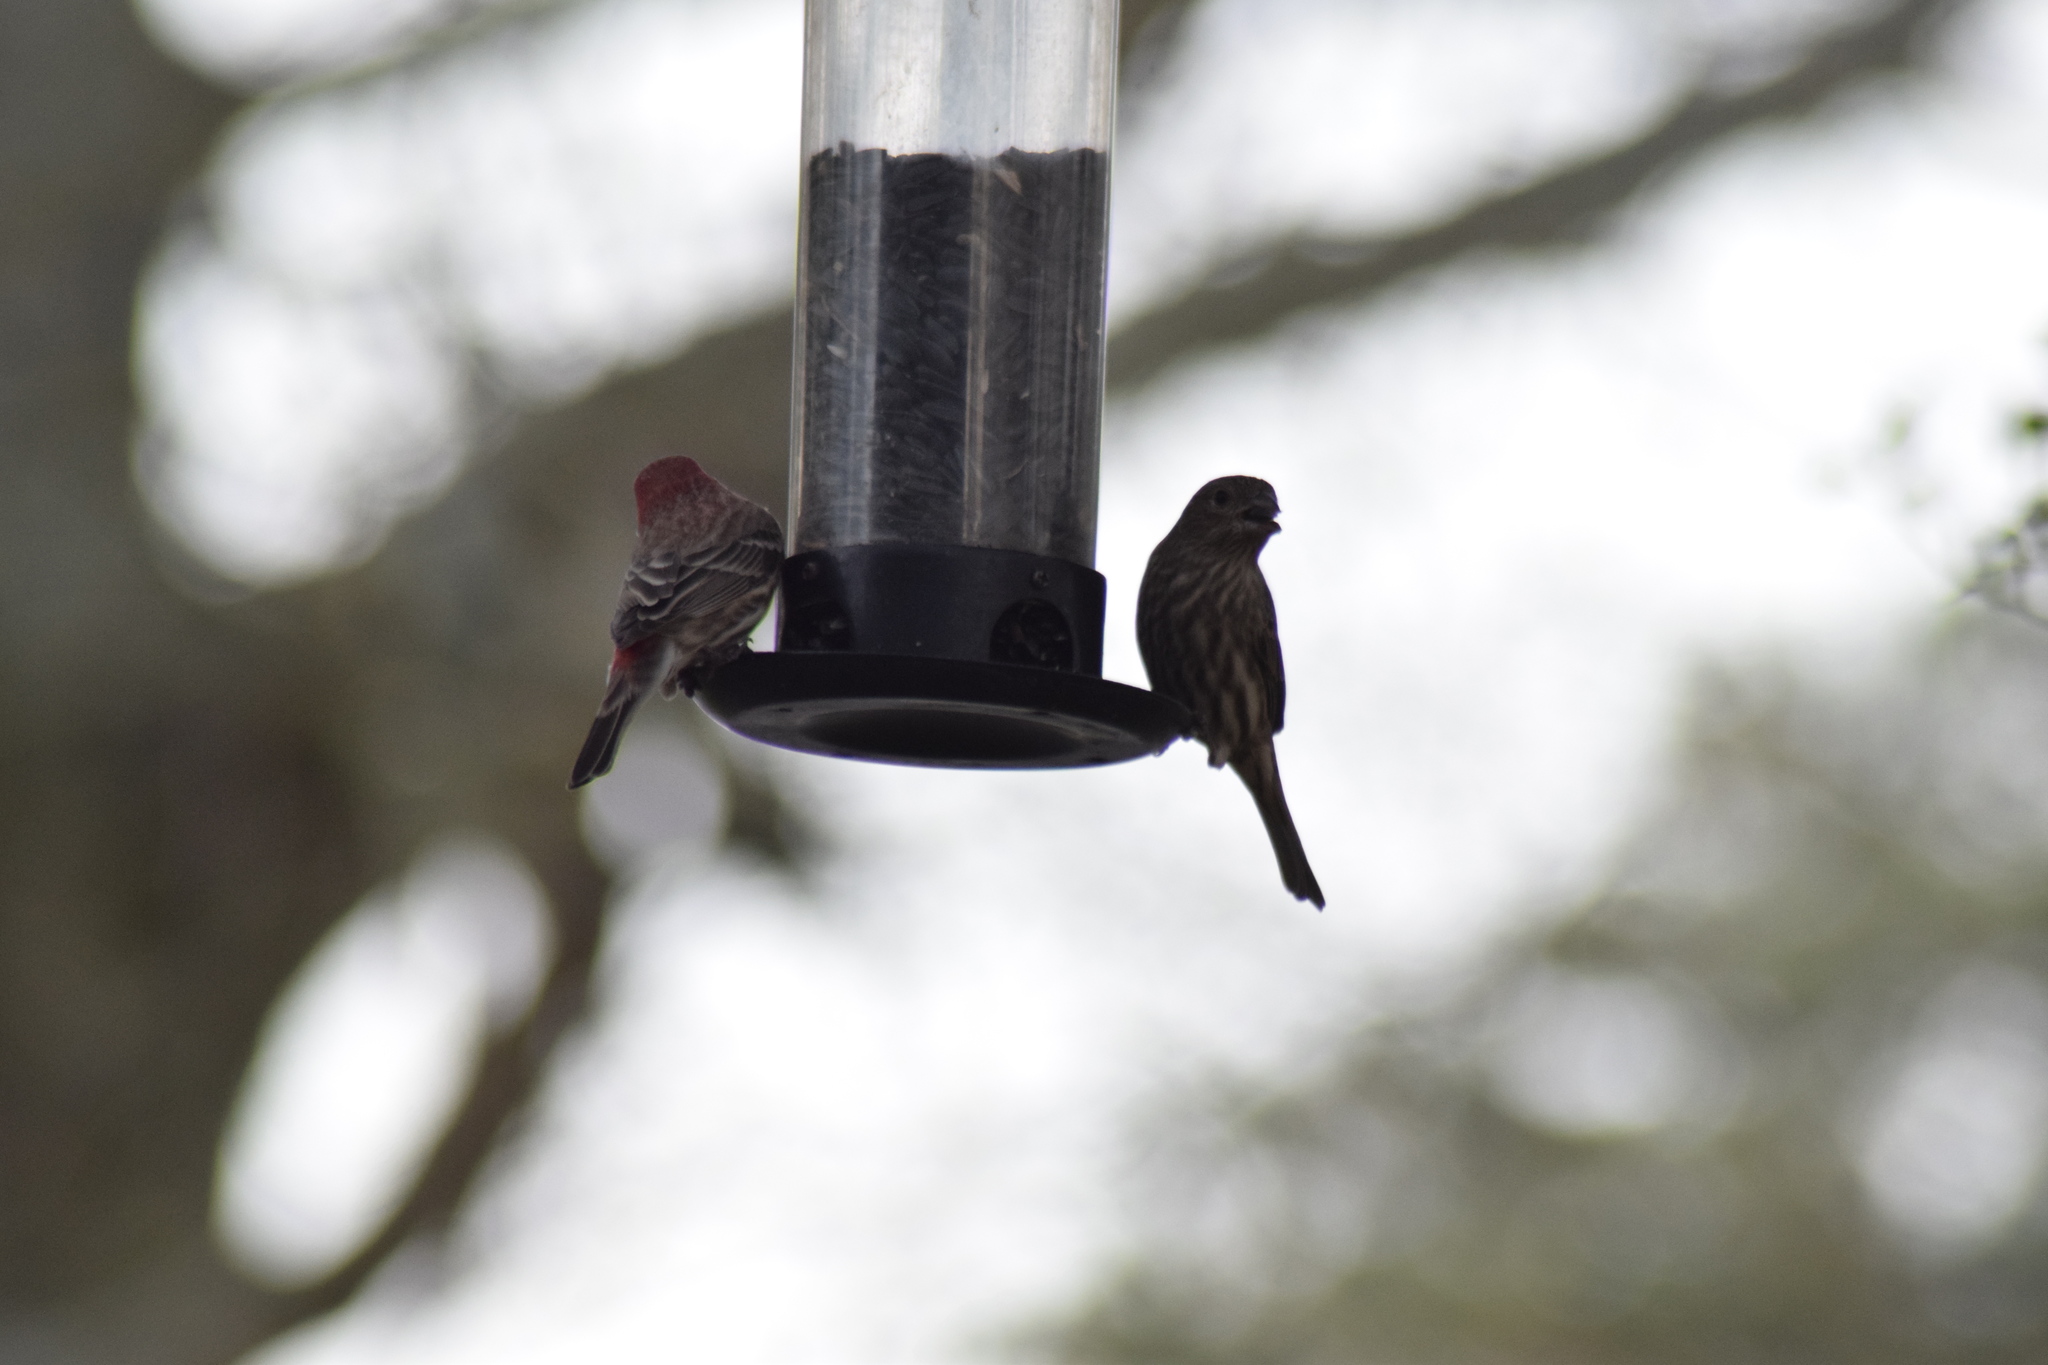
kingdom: Animalia
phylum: Chordata
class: Aves
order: Passeriformes
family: Fringillidae
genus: Haemorhous
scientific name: Haemorhous mexicanus
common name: House finch
